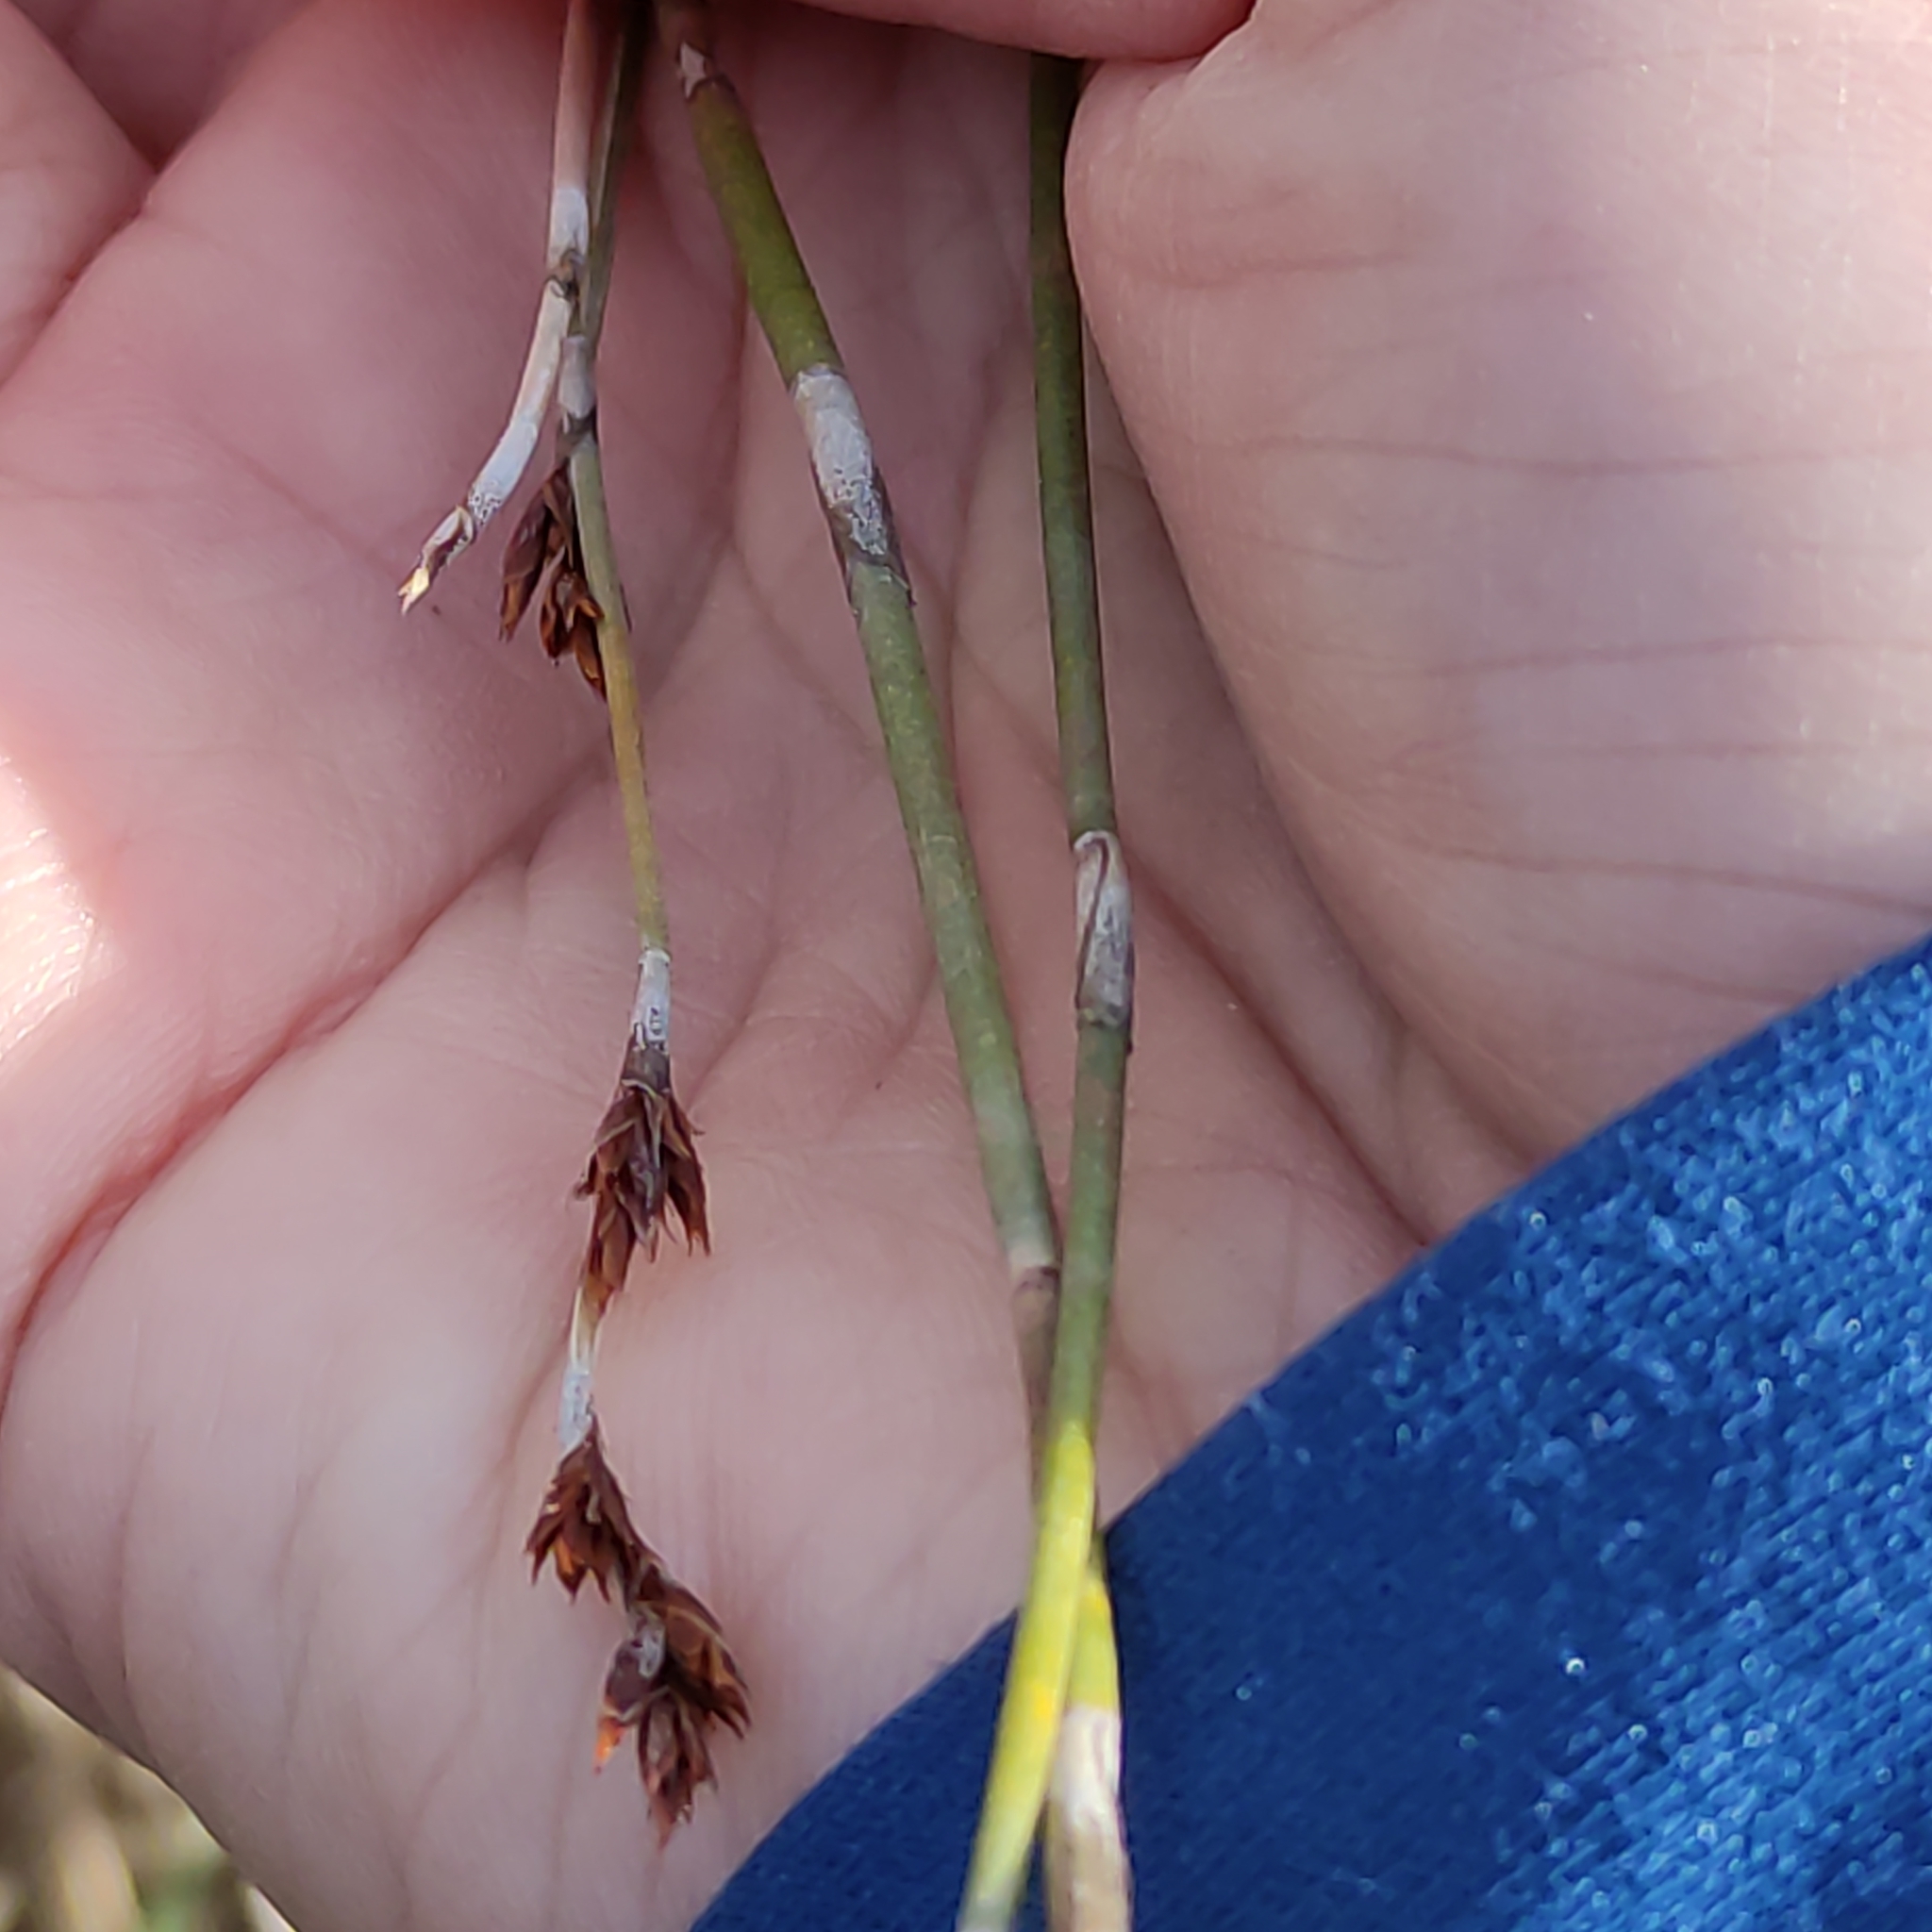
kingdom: Plantae
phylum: Tracheophyta
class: Liliopsida
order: Poales
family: Restionaceae
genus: Apodasmia
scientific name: Apodasmia similis
